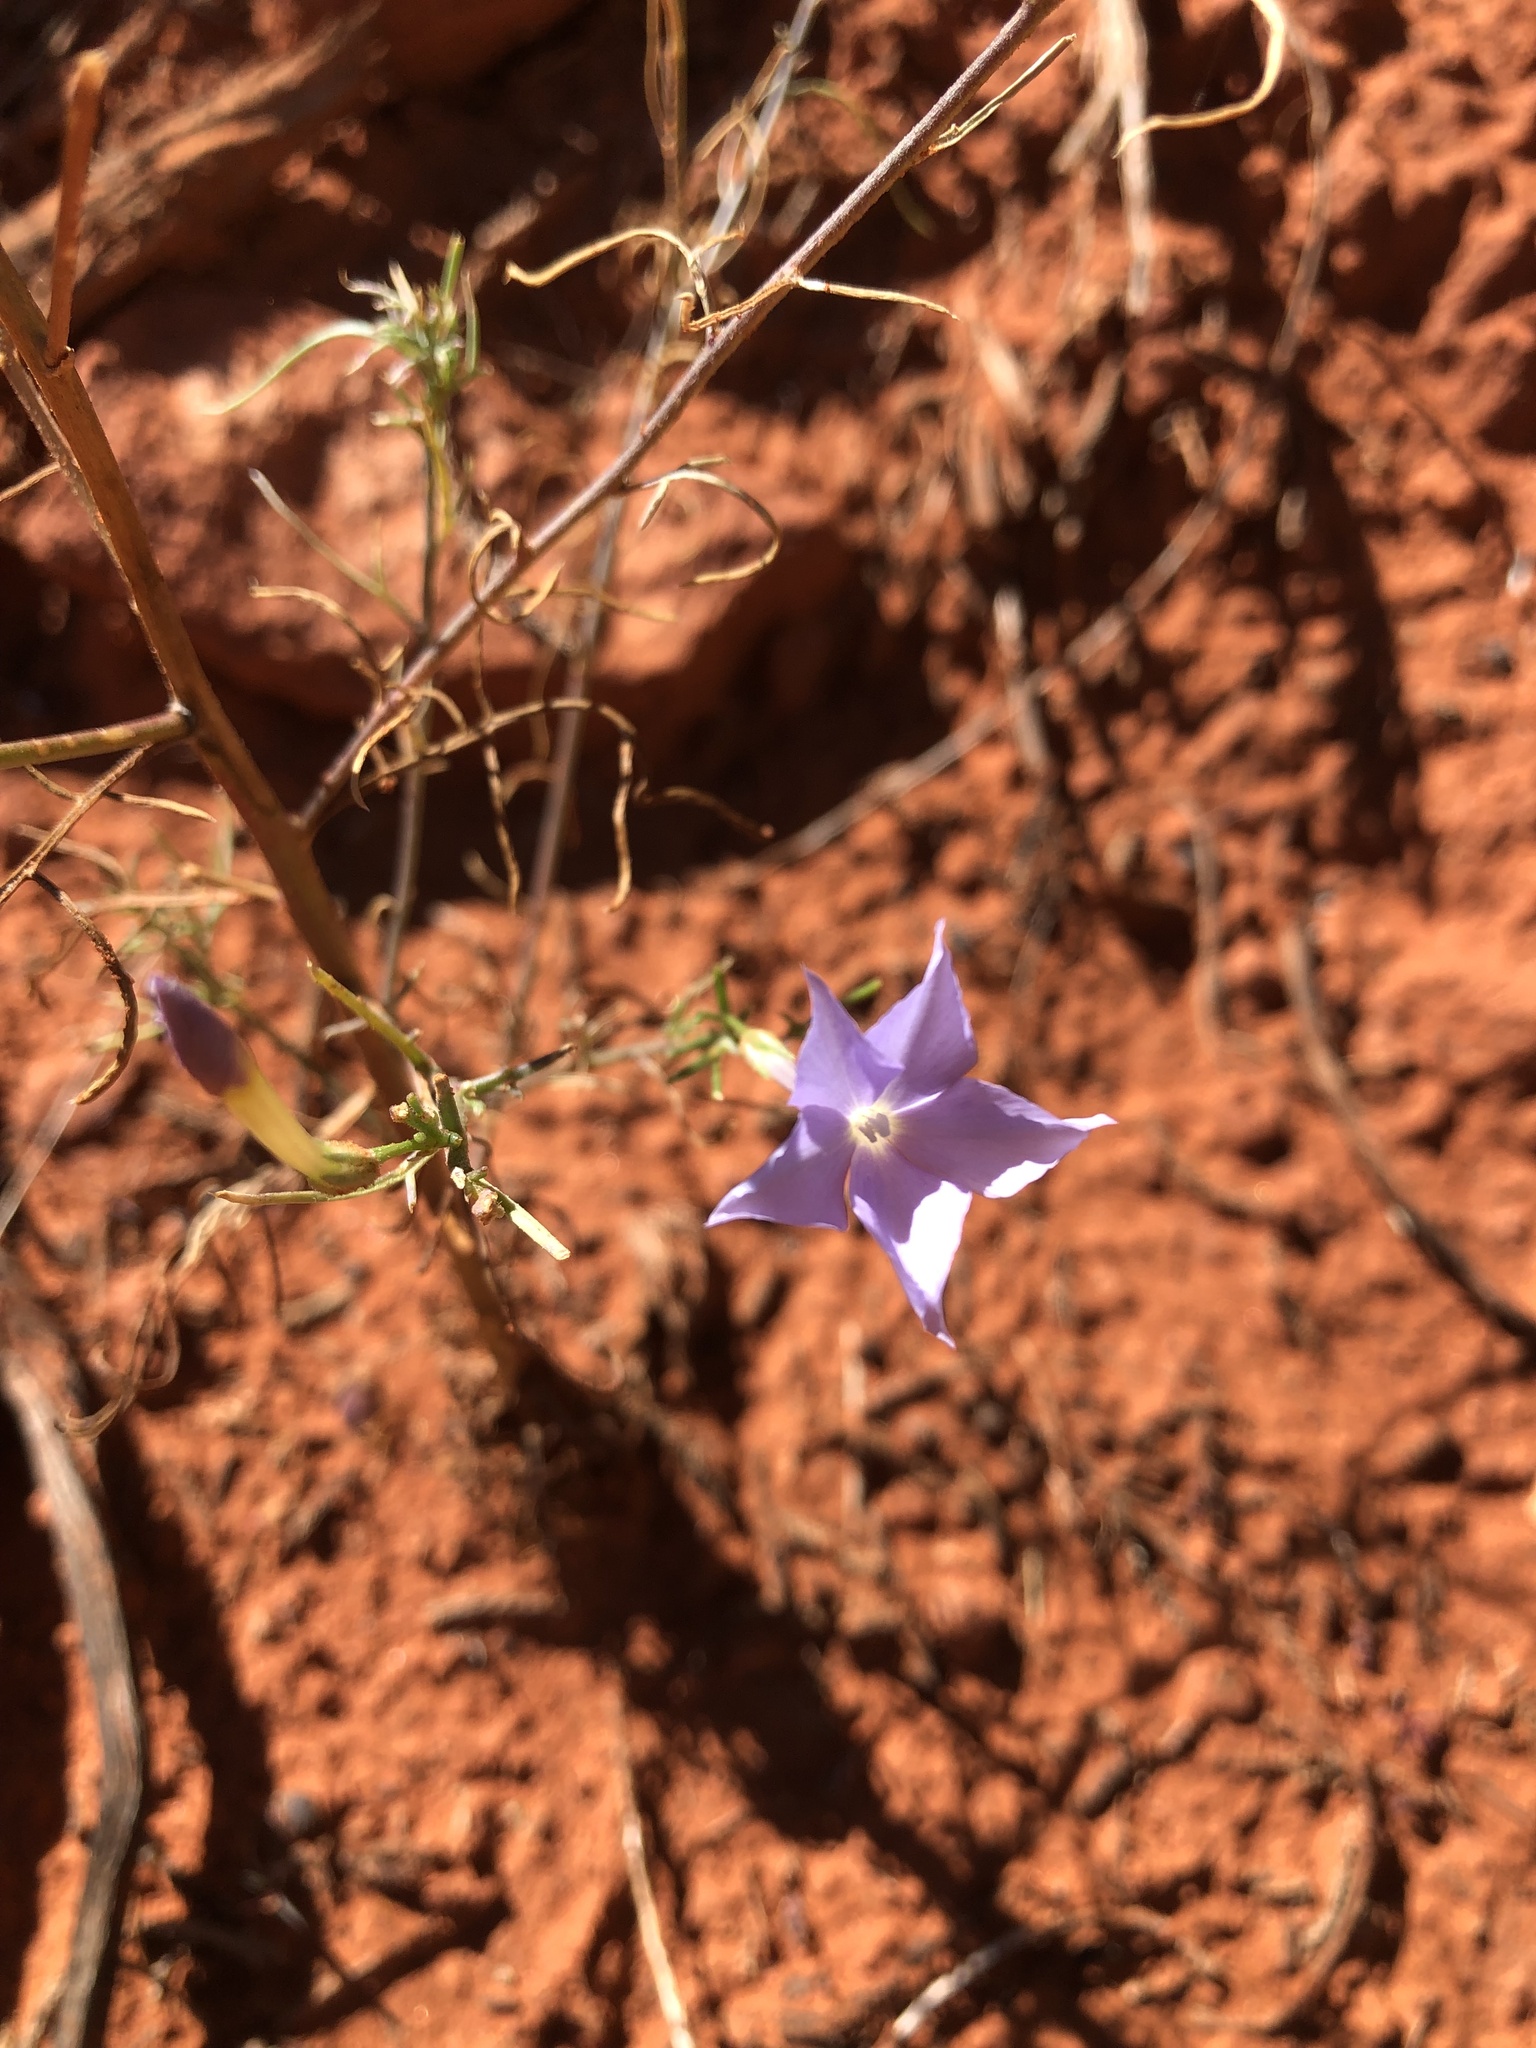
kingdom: Plantae
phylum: Tracheophyta
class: Magnoliopsida
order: Ericales
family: Polemoniaceae
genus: Ipomopsis
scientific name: Ipomopsis longiflora
